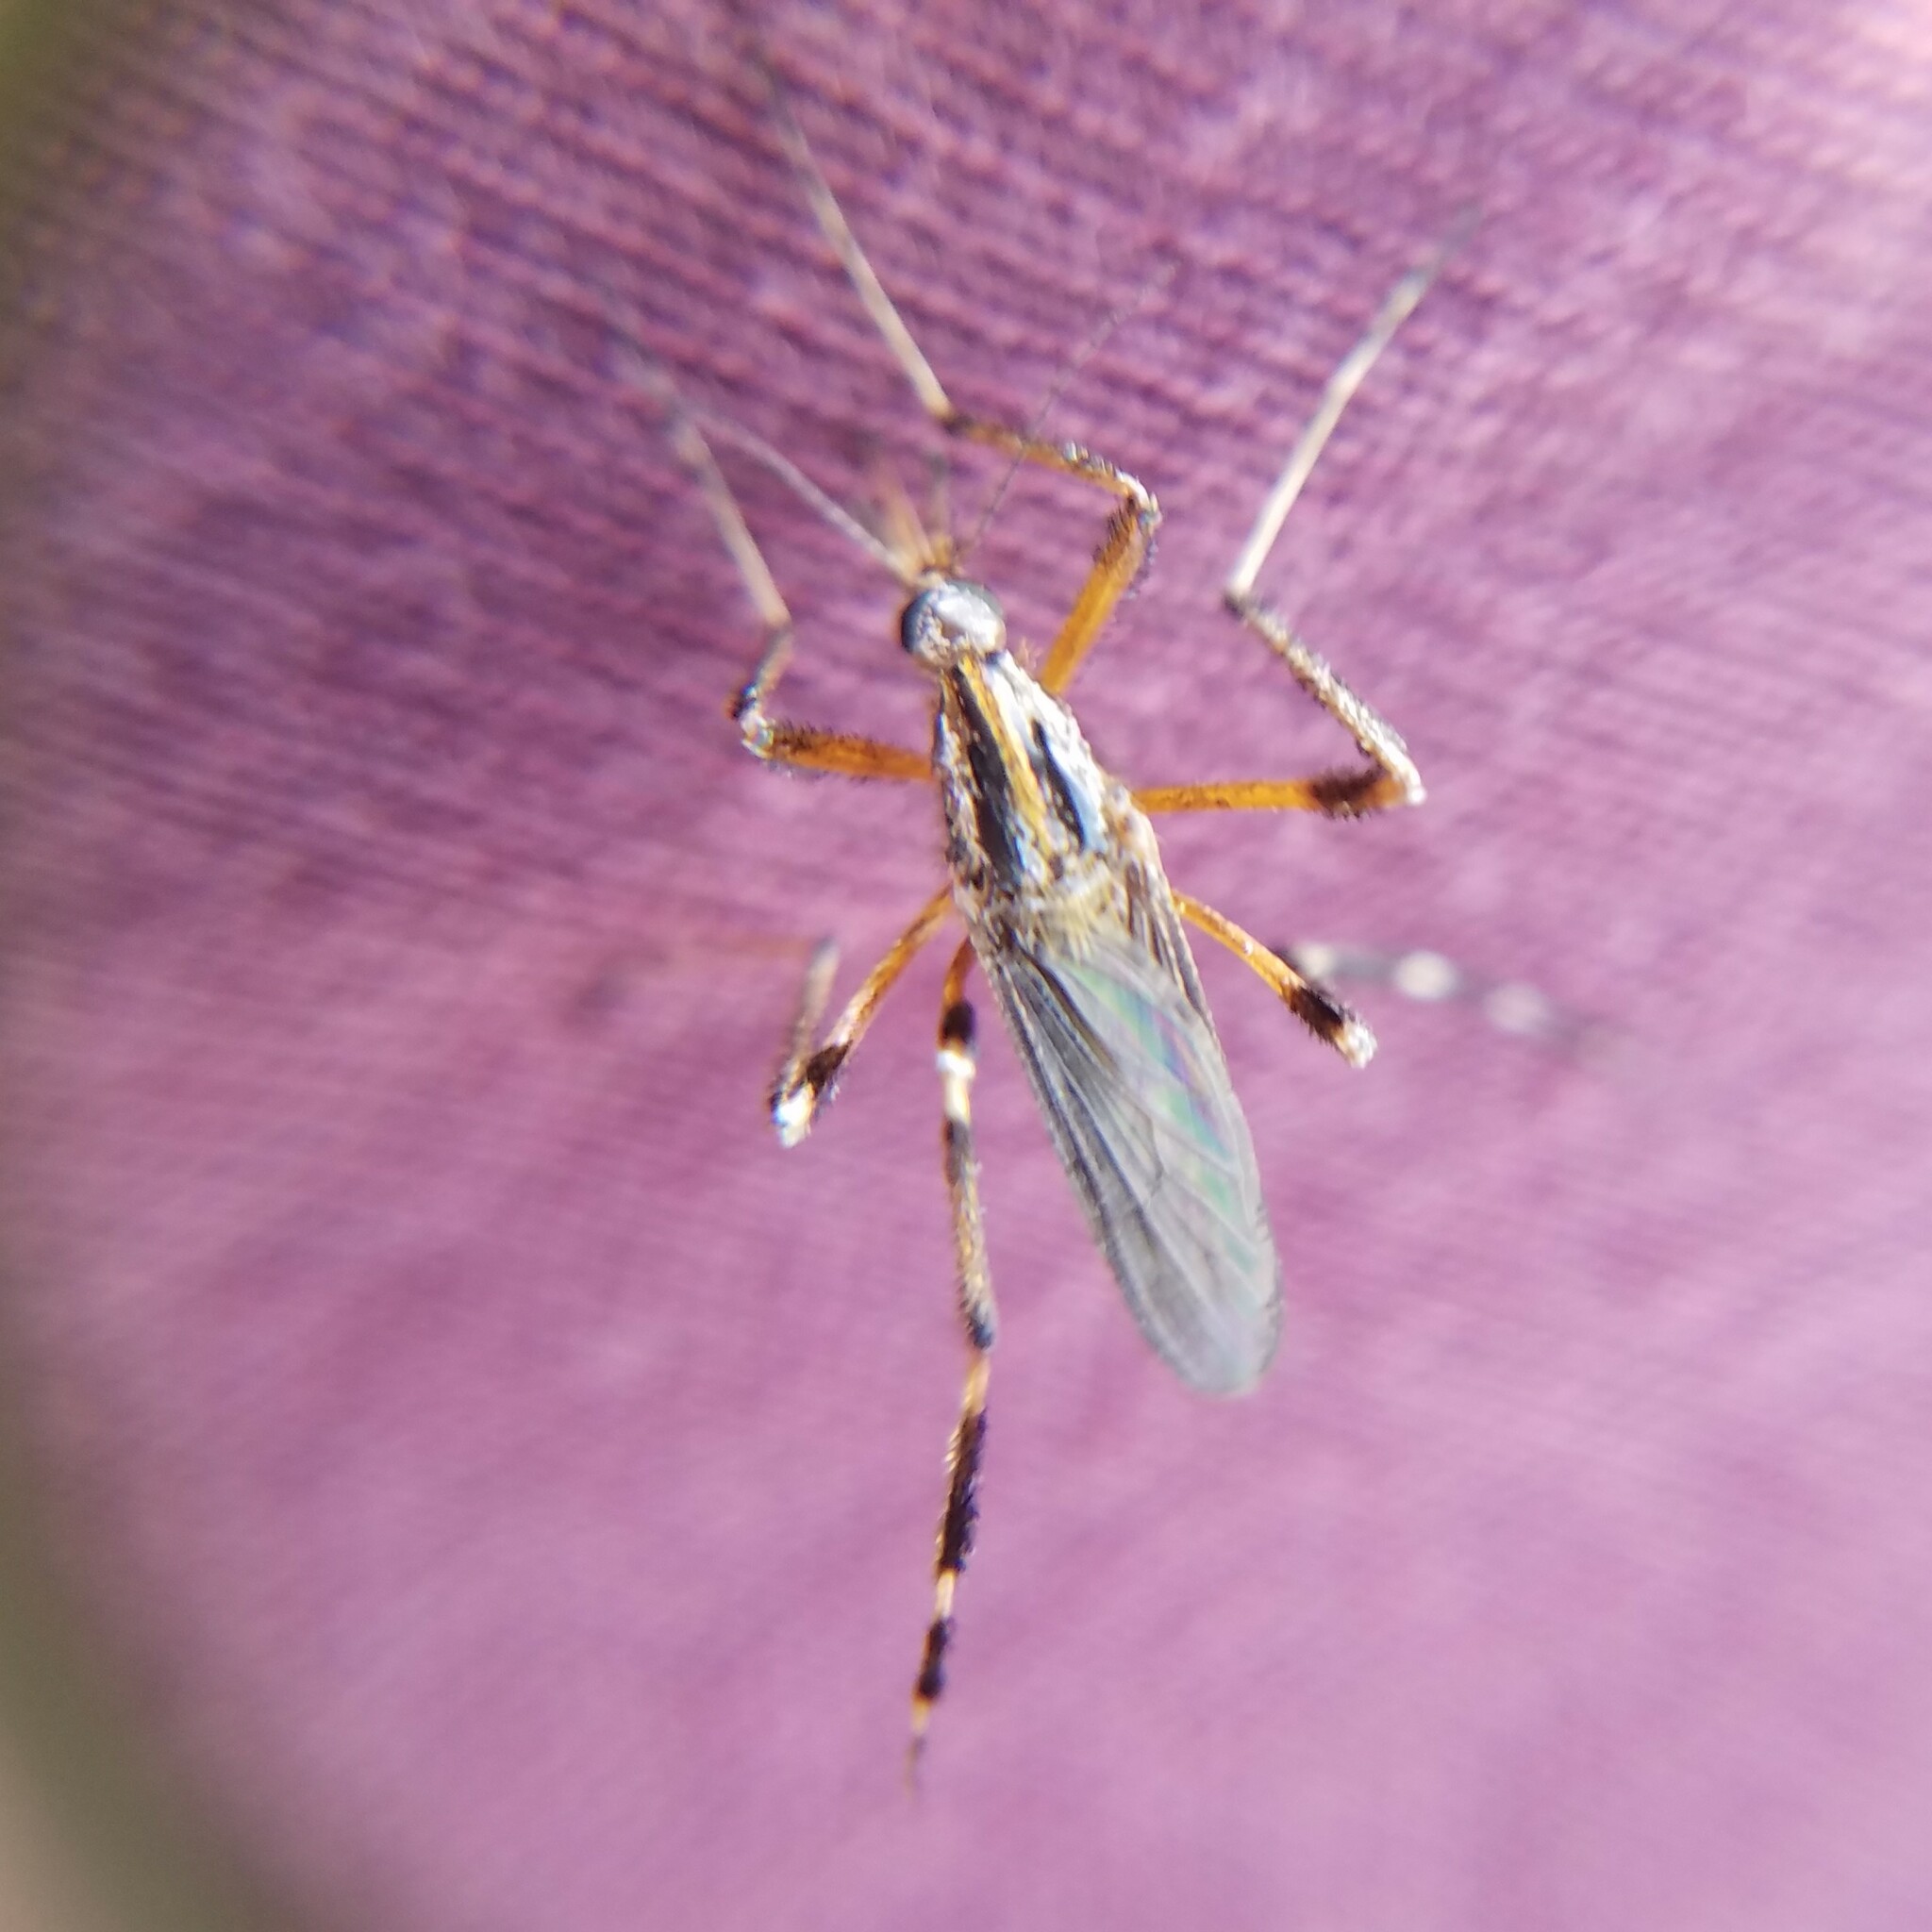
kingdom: Animalia
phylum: Arthropoda
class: Insecta
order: Diptera
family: Culicidae
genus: Psorophora
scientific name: Psorophora ciliata
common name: Gallinipper
